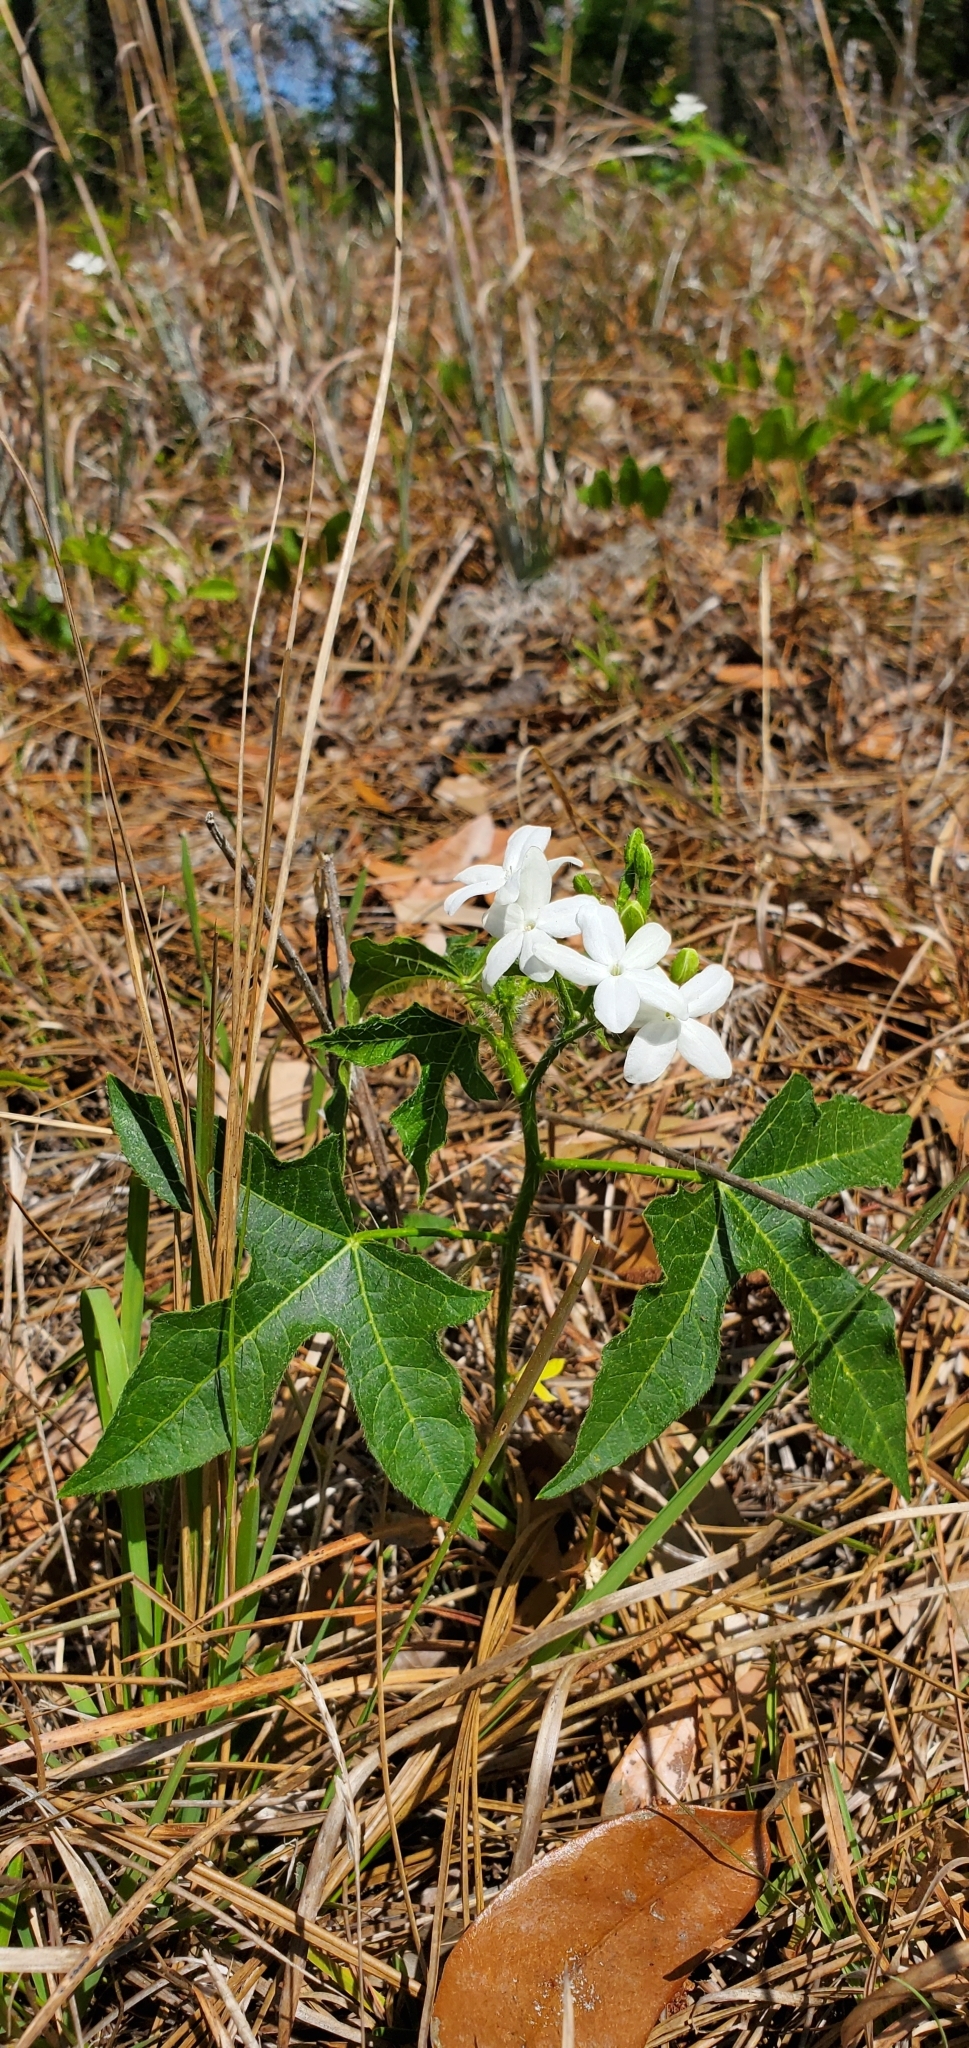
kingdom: Plantae
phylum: Tracheophyta
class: Magnoliopsida
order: Malpighiales
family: Euphorbiaceae
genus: Cnidoscolus
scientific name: Cnidoscolus stimulosus
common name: Bull-nettle
